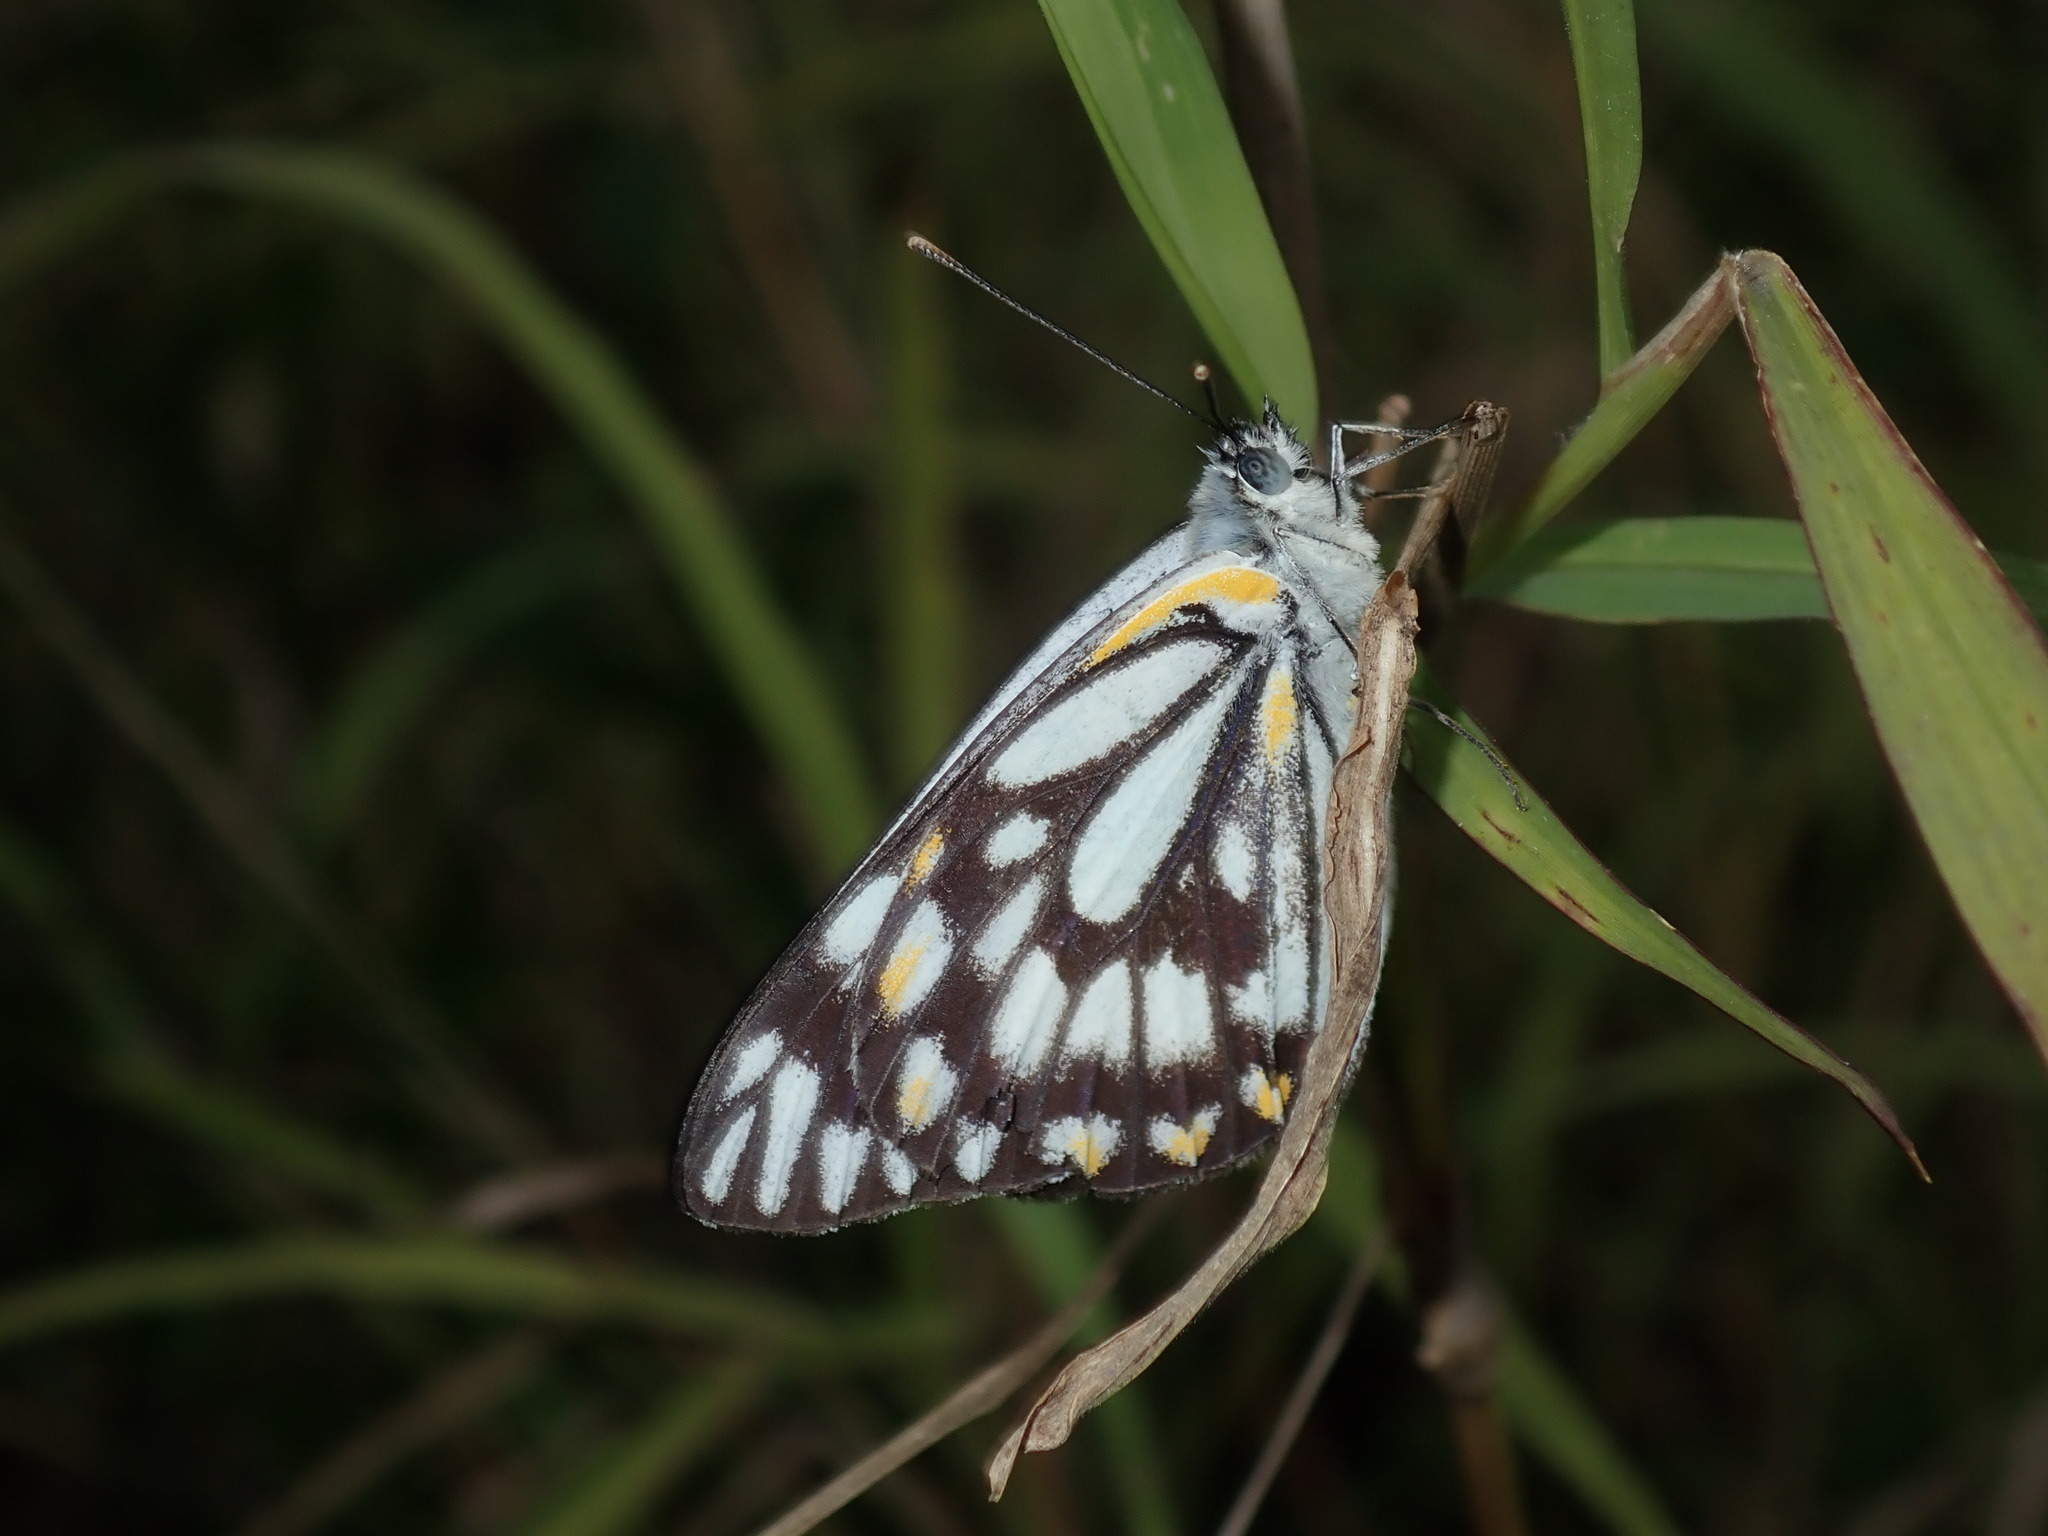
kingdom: Animalia
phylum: Arthropoda
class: Insecta
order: Lepidoptera
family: Pieridae
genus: Belenois
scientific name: Belenois java
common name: Caper white
